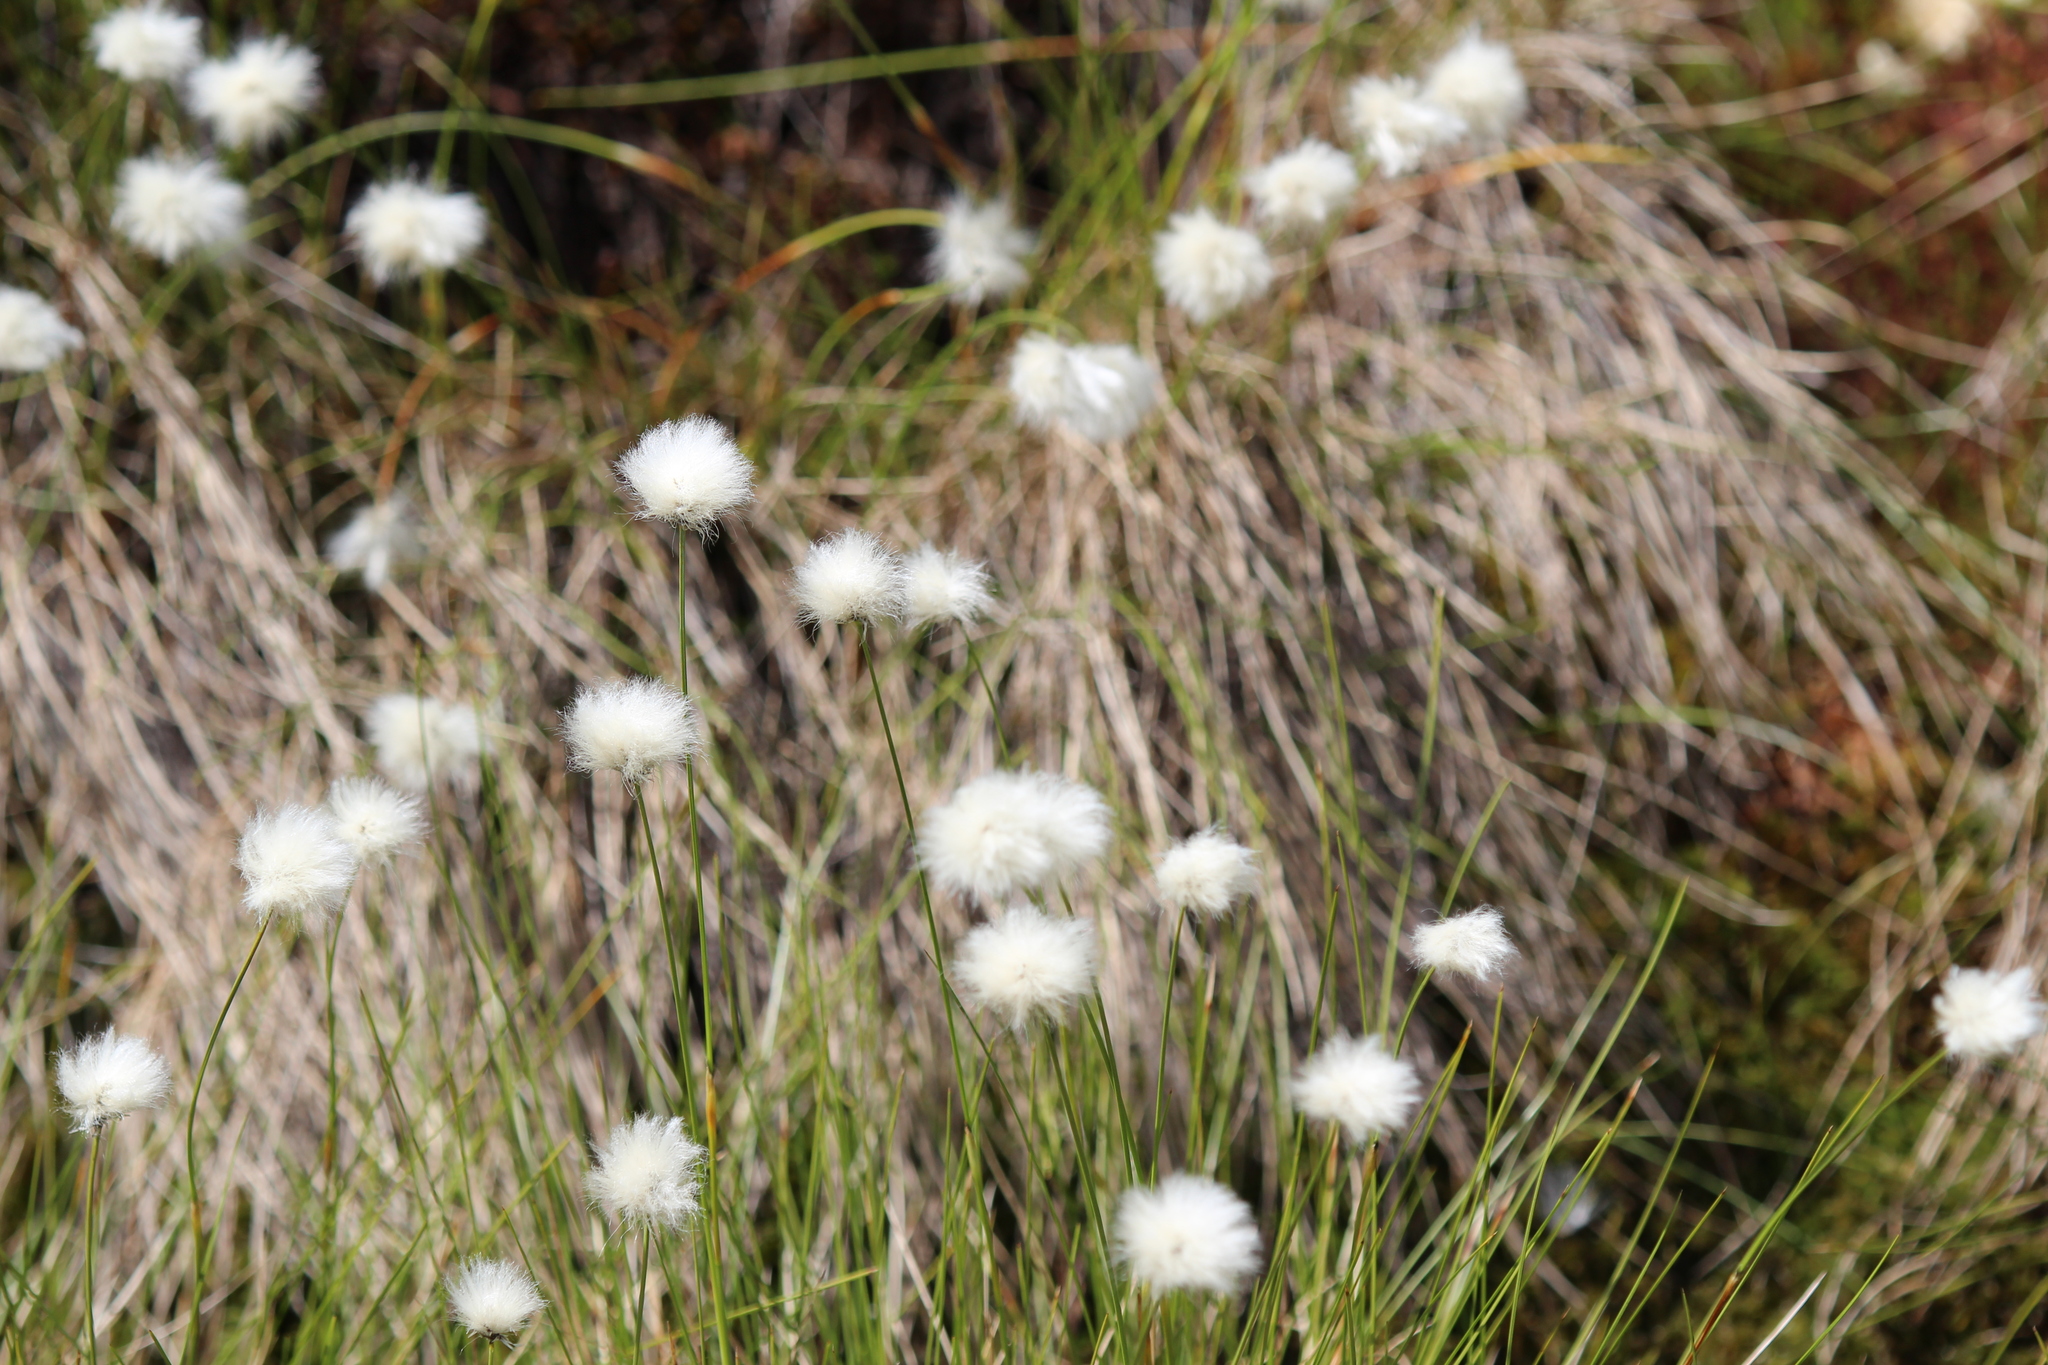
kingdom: Plantae
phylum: Tracheophyta
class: Liliopsida
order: Poales
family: Cyperaceae
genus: Eriophorum
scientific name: Eriophorum vaginatum
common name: Hare's-tail cottongrass
